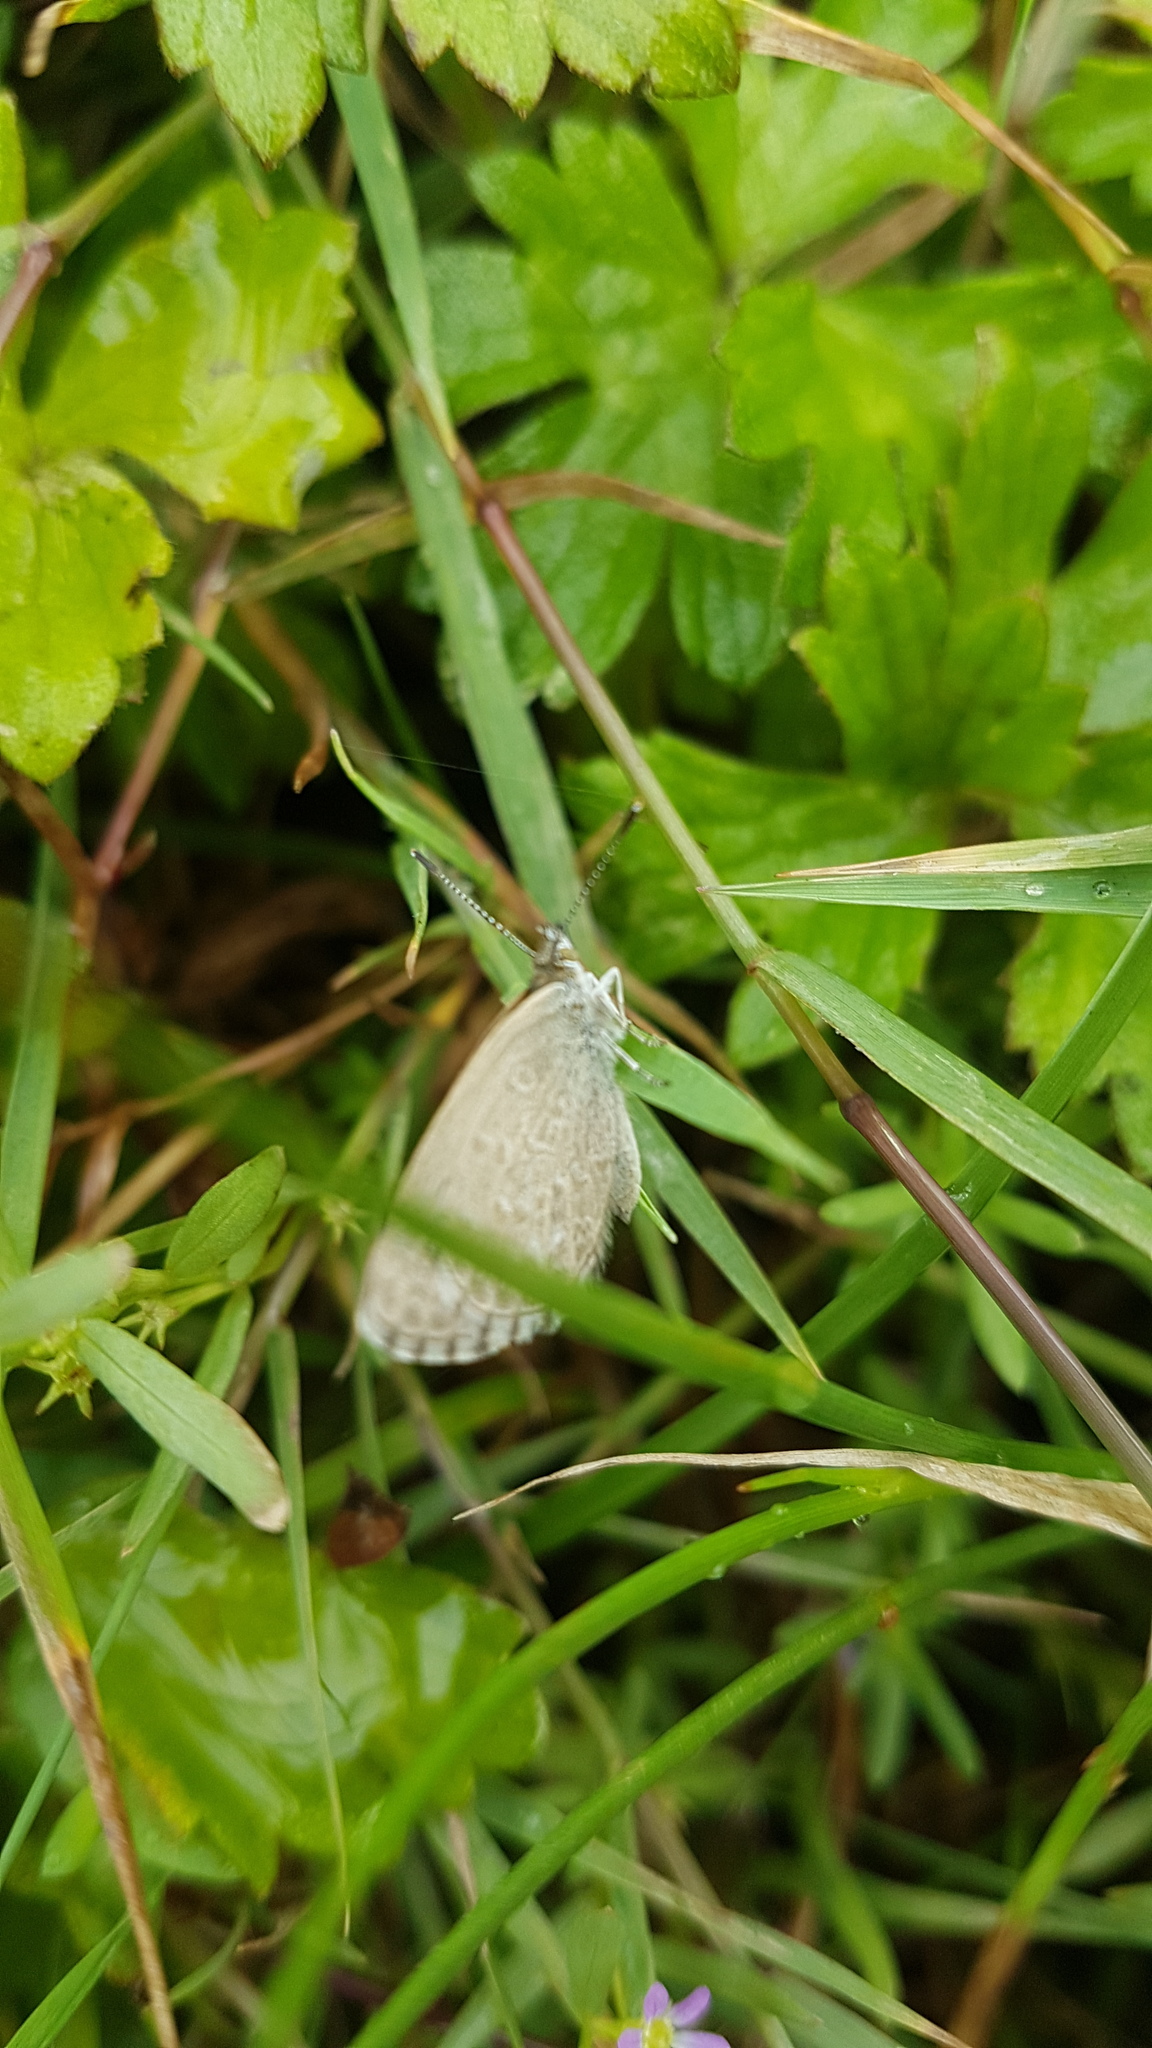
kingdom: Animalia
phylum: Arthropoda
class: Insecta
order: Lepidoptera
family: Lycaenidae
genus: Zizina
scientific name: Zizina labradus
